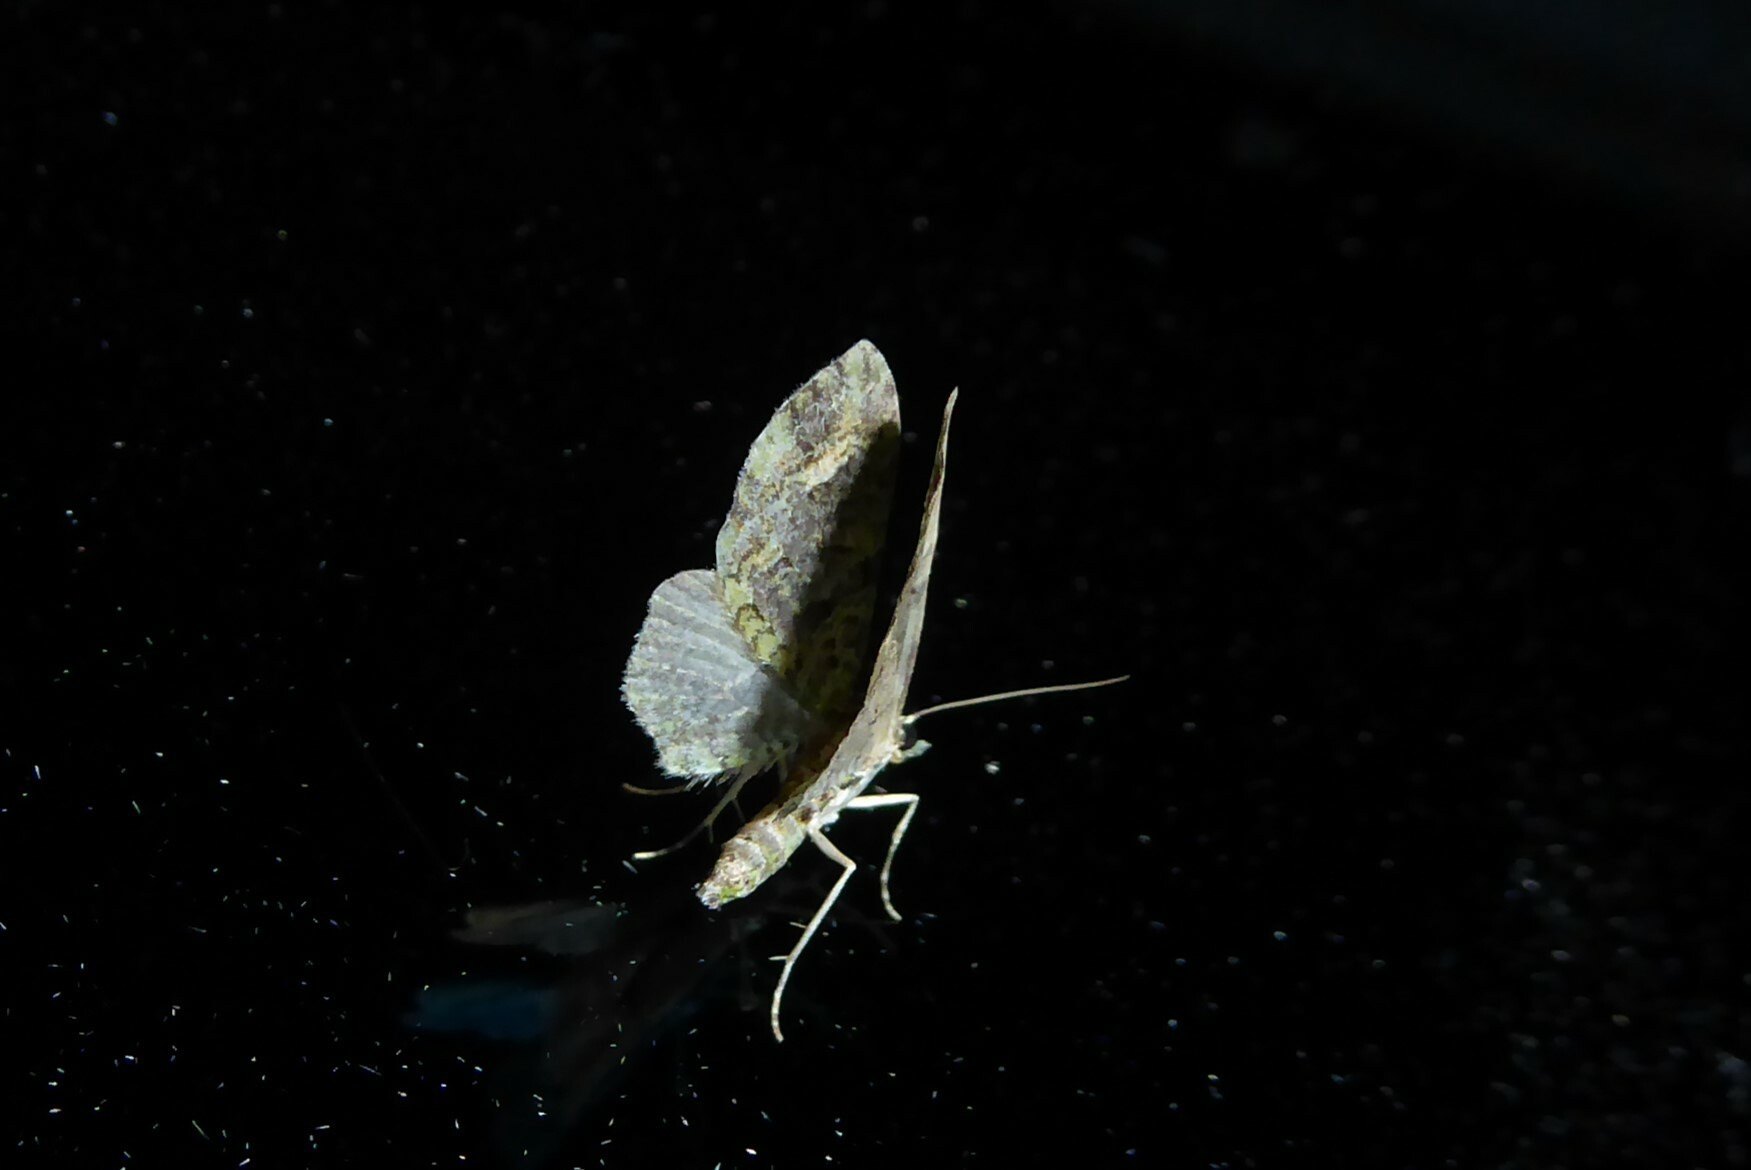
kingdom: Animalia
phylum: Arthropoda
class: Insecta
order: Lepidoptera
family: Geometridae
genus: Idaea
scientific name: Idaea mutanda
